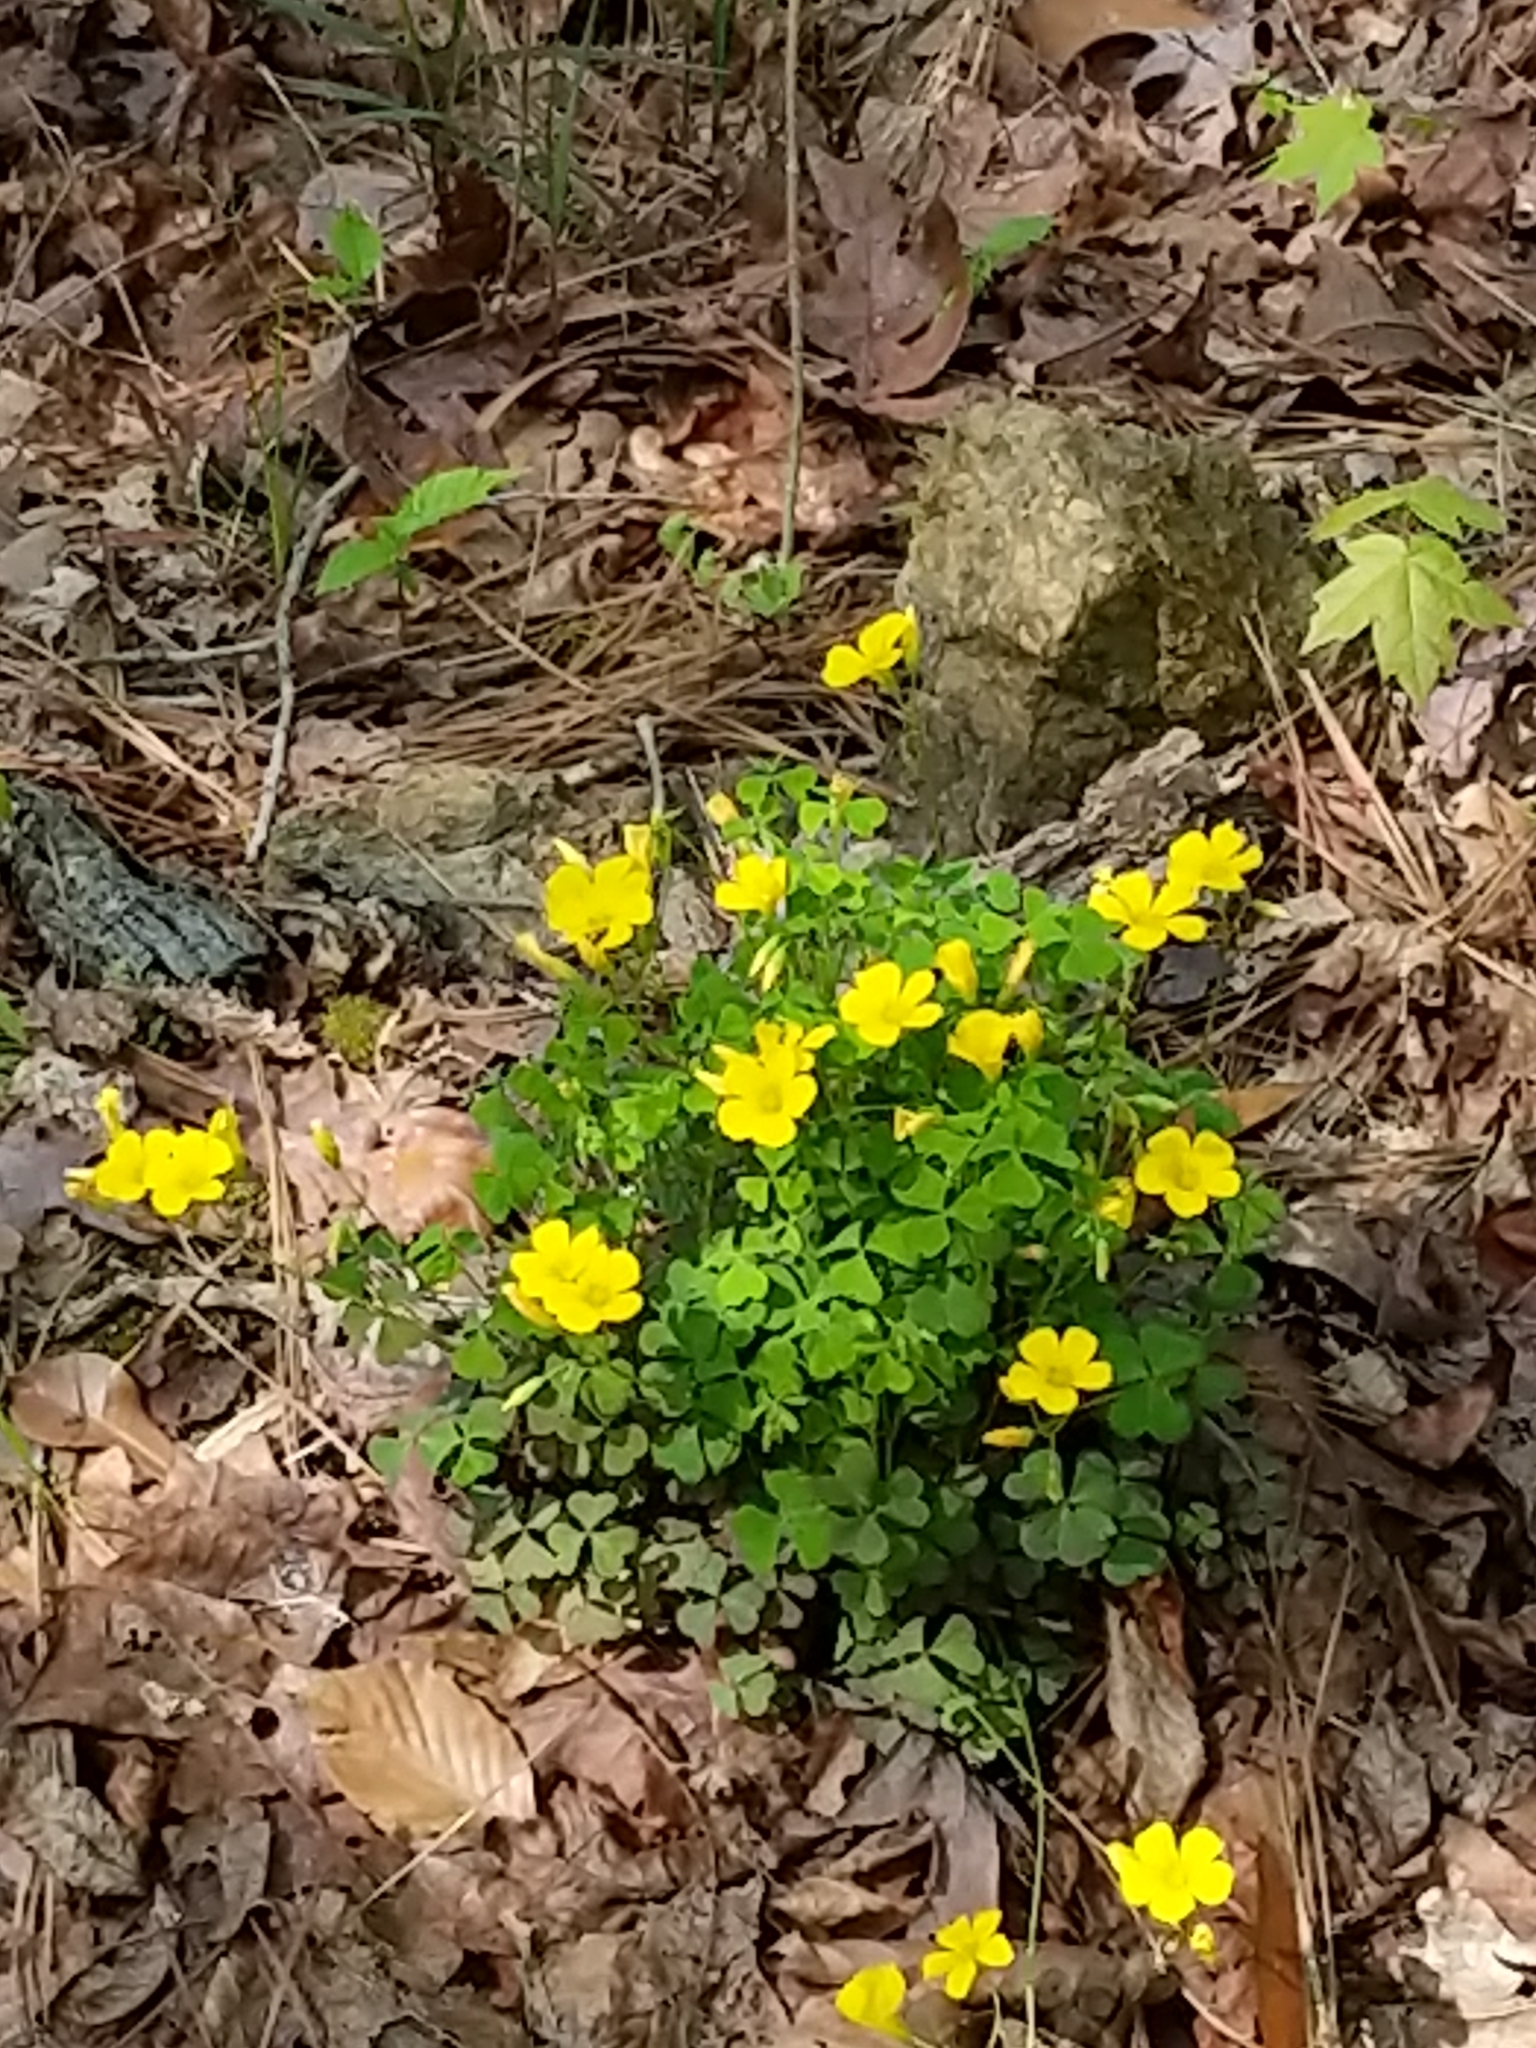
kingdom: Plantae
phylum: Tracheophyta
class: Magnoliopsida
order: Oxalidales
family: Oxalidaceae
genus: Oxalis
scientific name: Oxalis colorea
